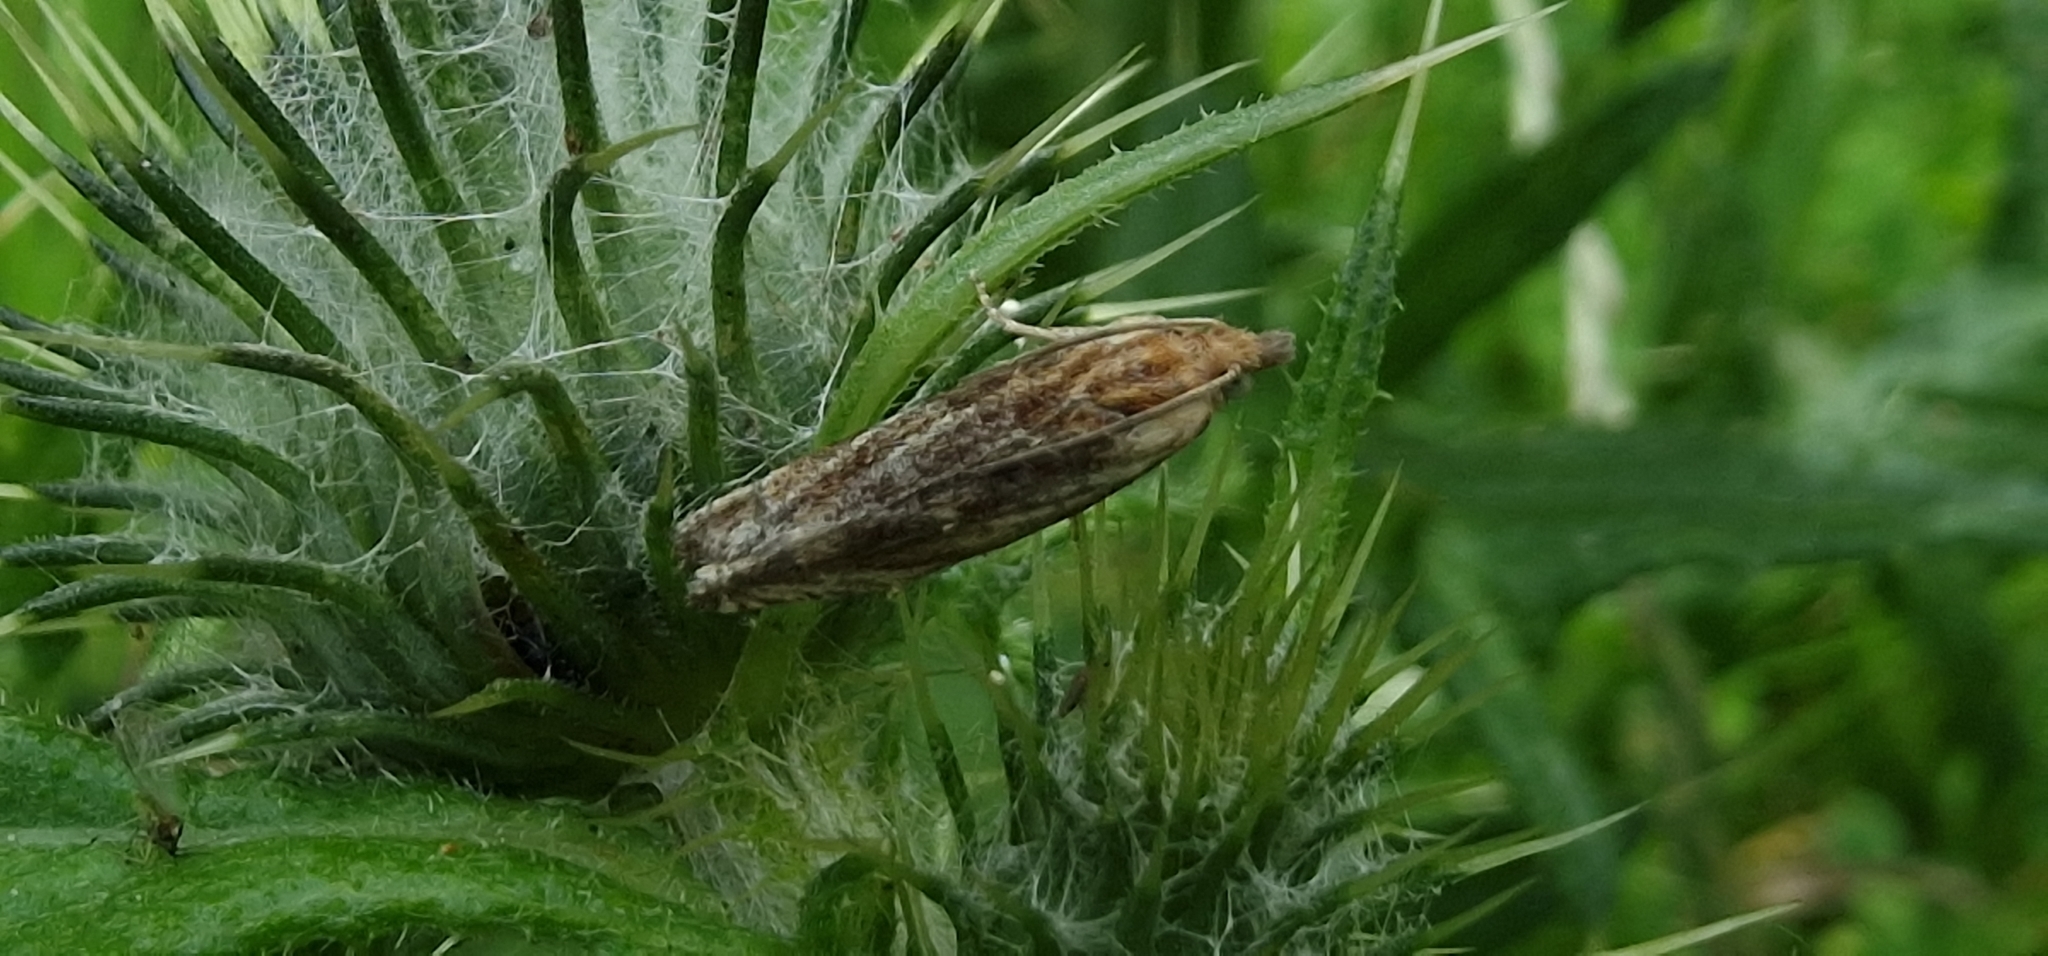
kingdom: Animalia
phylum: Arthropoda
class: Insecta
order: Lepidoptera
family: Tortricidae
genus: Eucosma
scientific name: Eucosma cana
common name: Hoary belle
